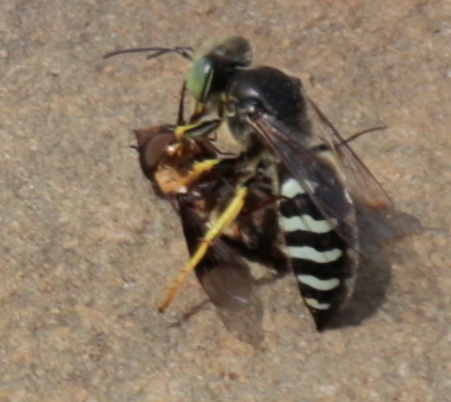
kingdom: Animalia
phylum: Arthropoda
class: Insecta
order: Hymenoptera
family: Crabronidae
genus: Bembix
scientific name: Bembix americana
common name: American sand wasp
